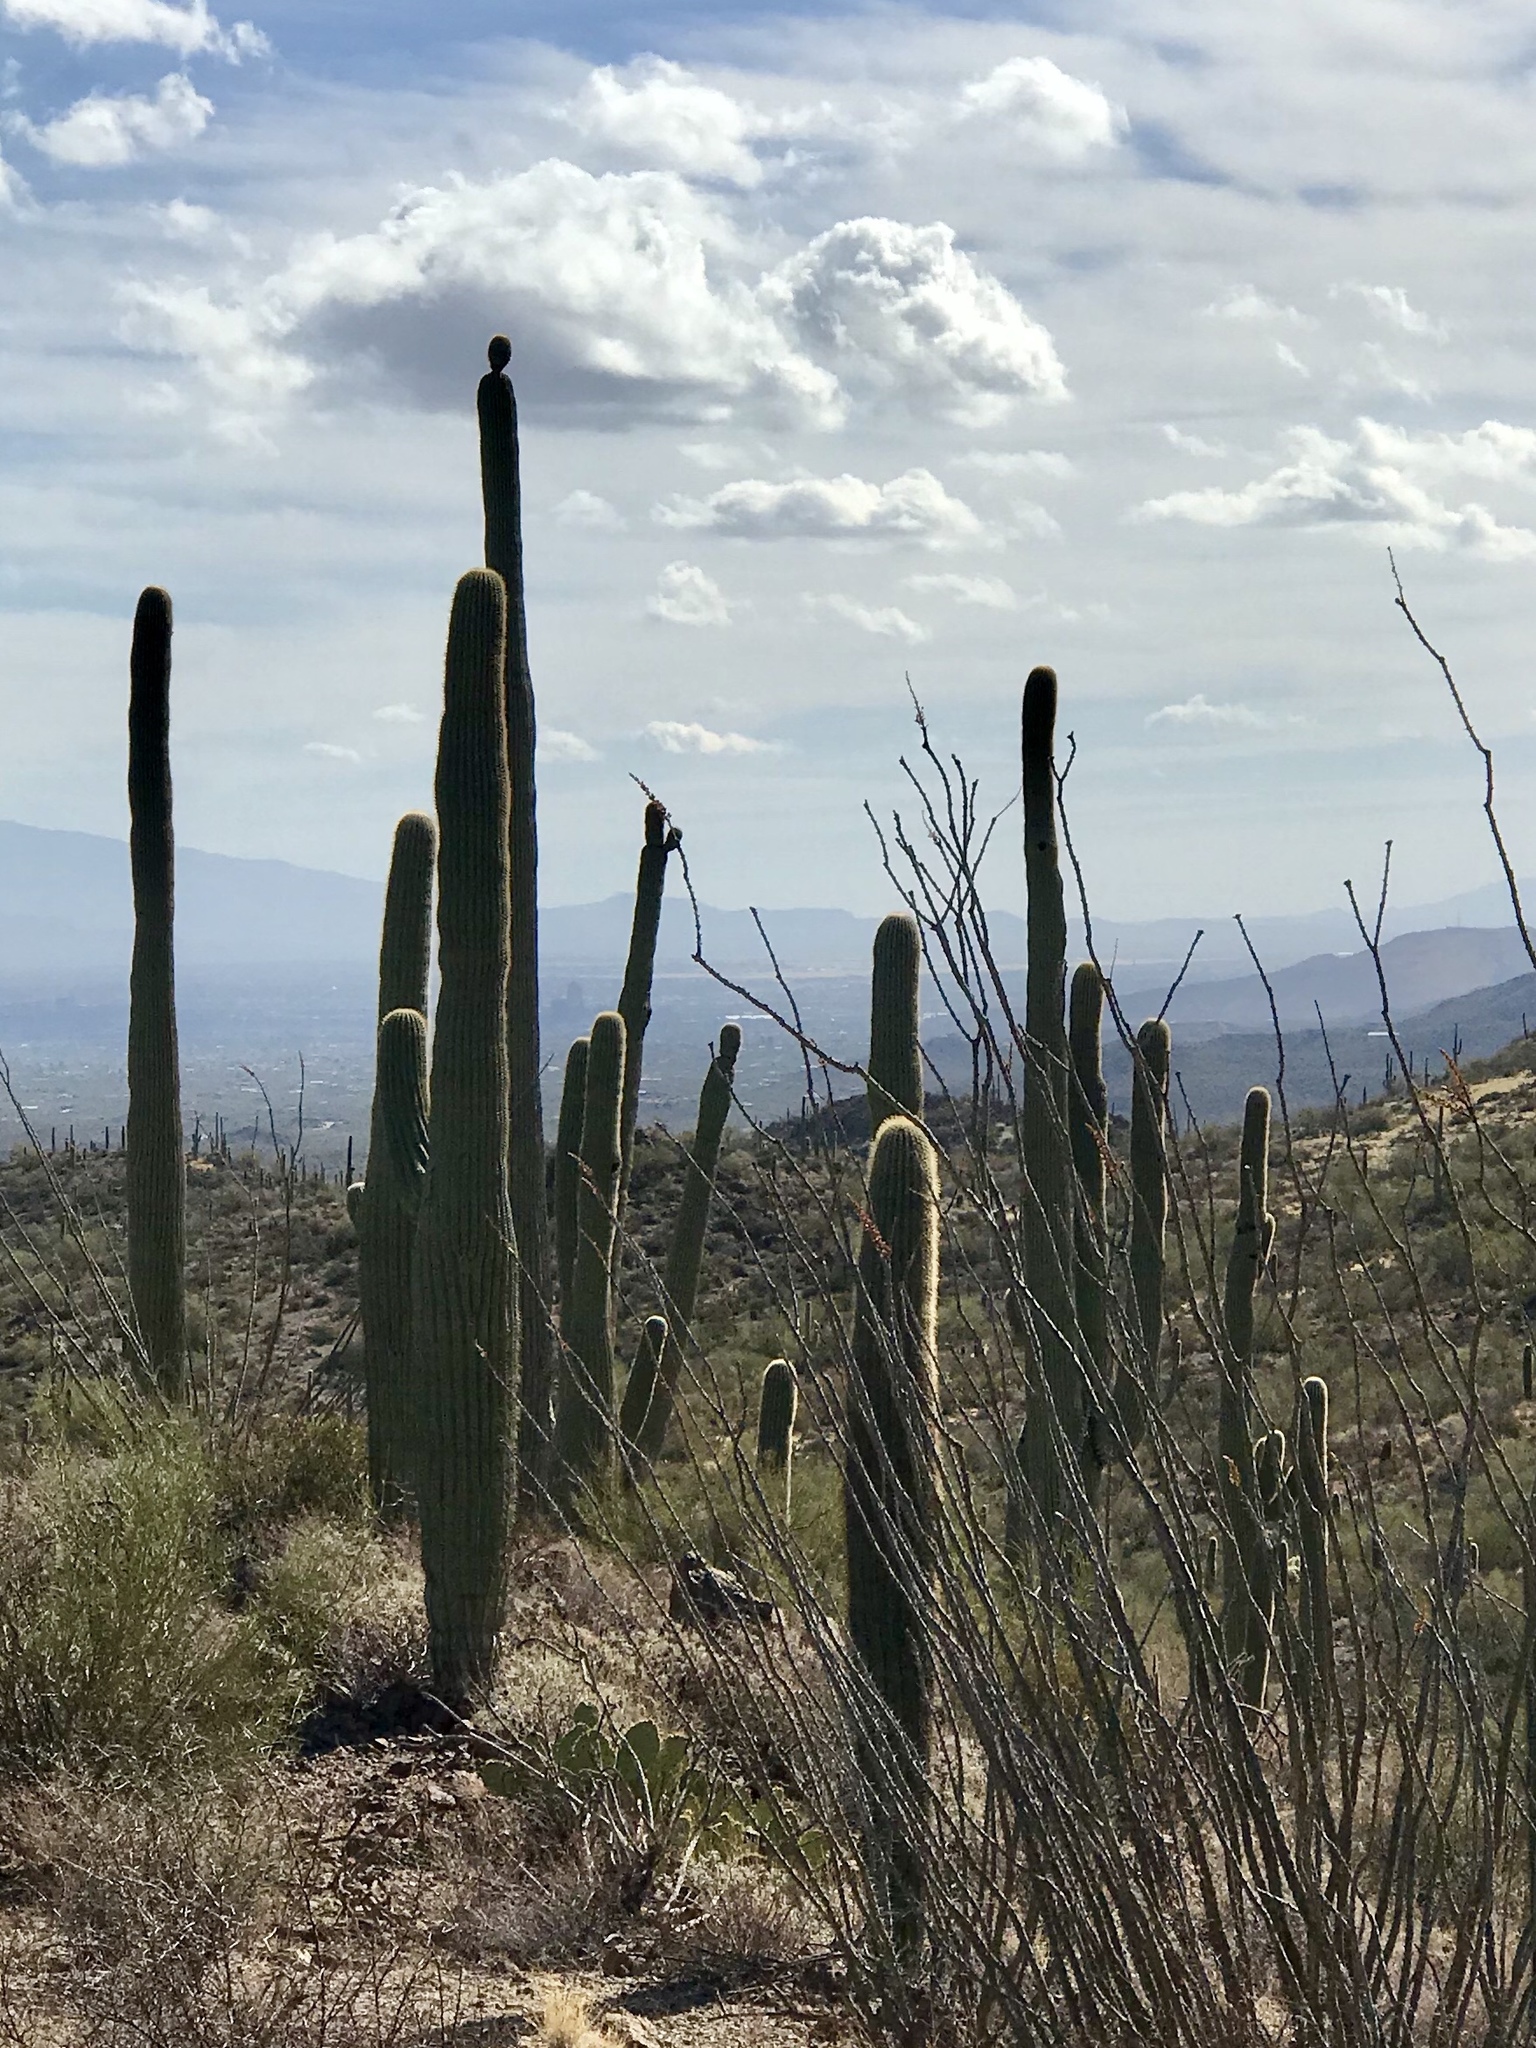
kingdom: Plantae
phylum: Tracheophyta
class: Magnoliopsida
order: Caryophyllales
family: Cactaceae
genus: Carnegiea
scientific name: Carnegiea gigantea
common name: Saguaro
